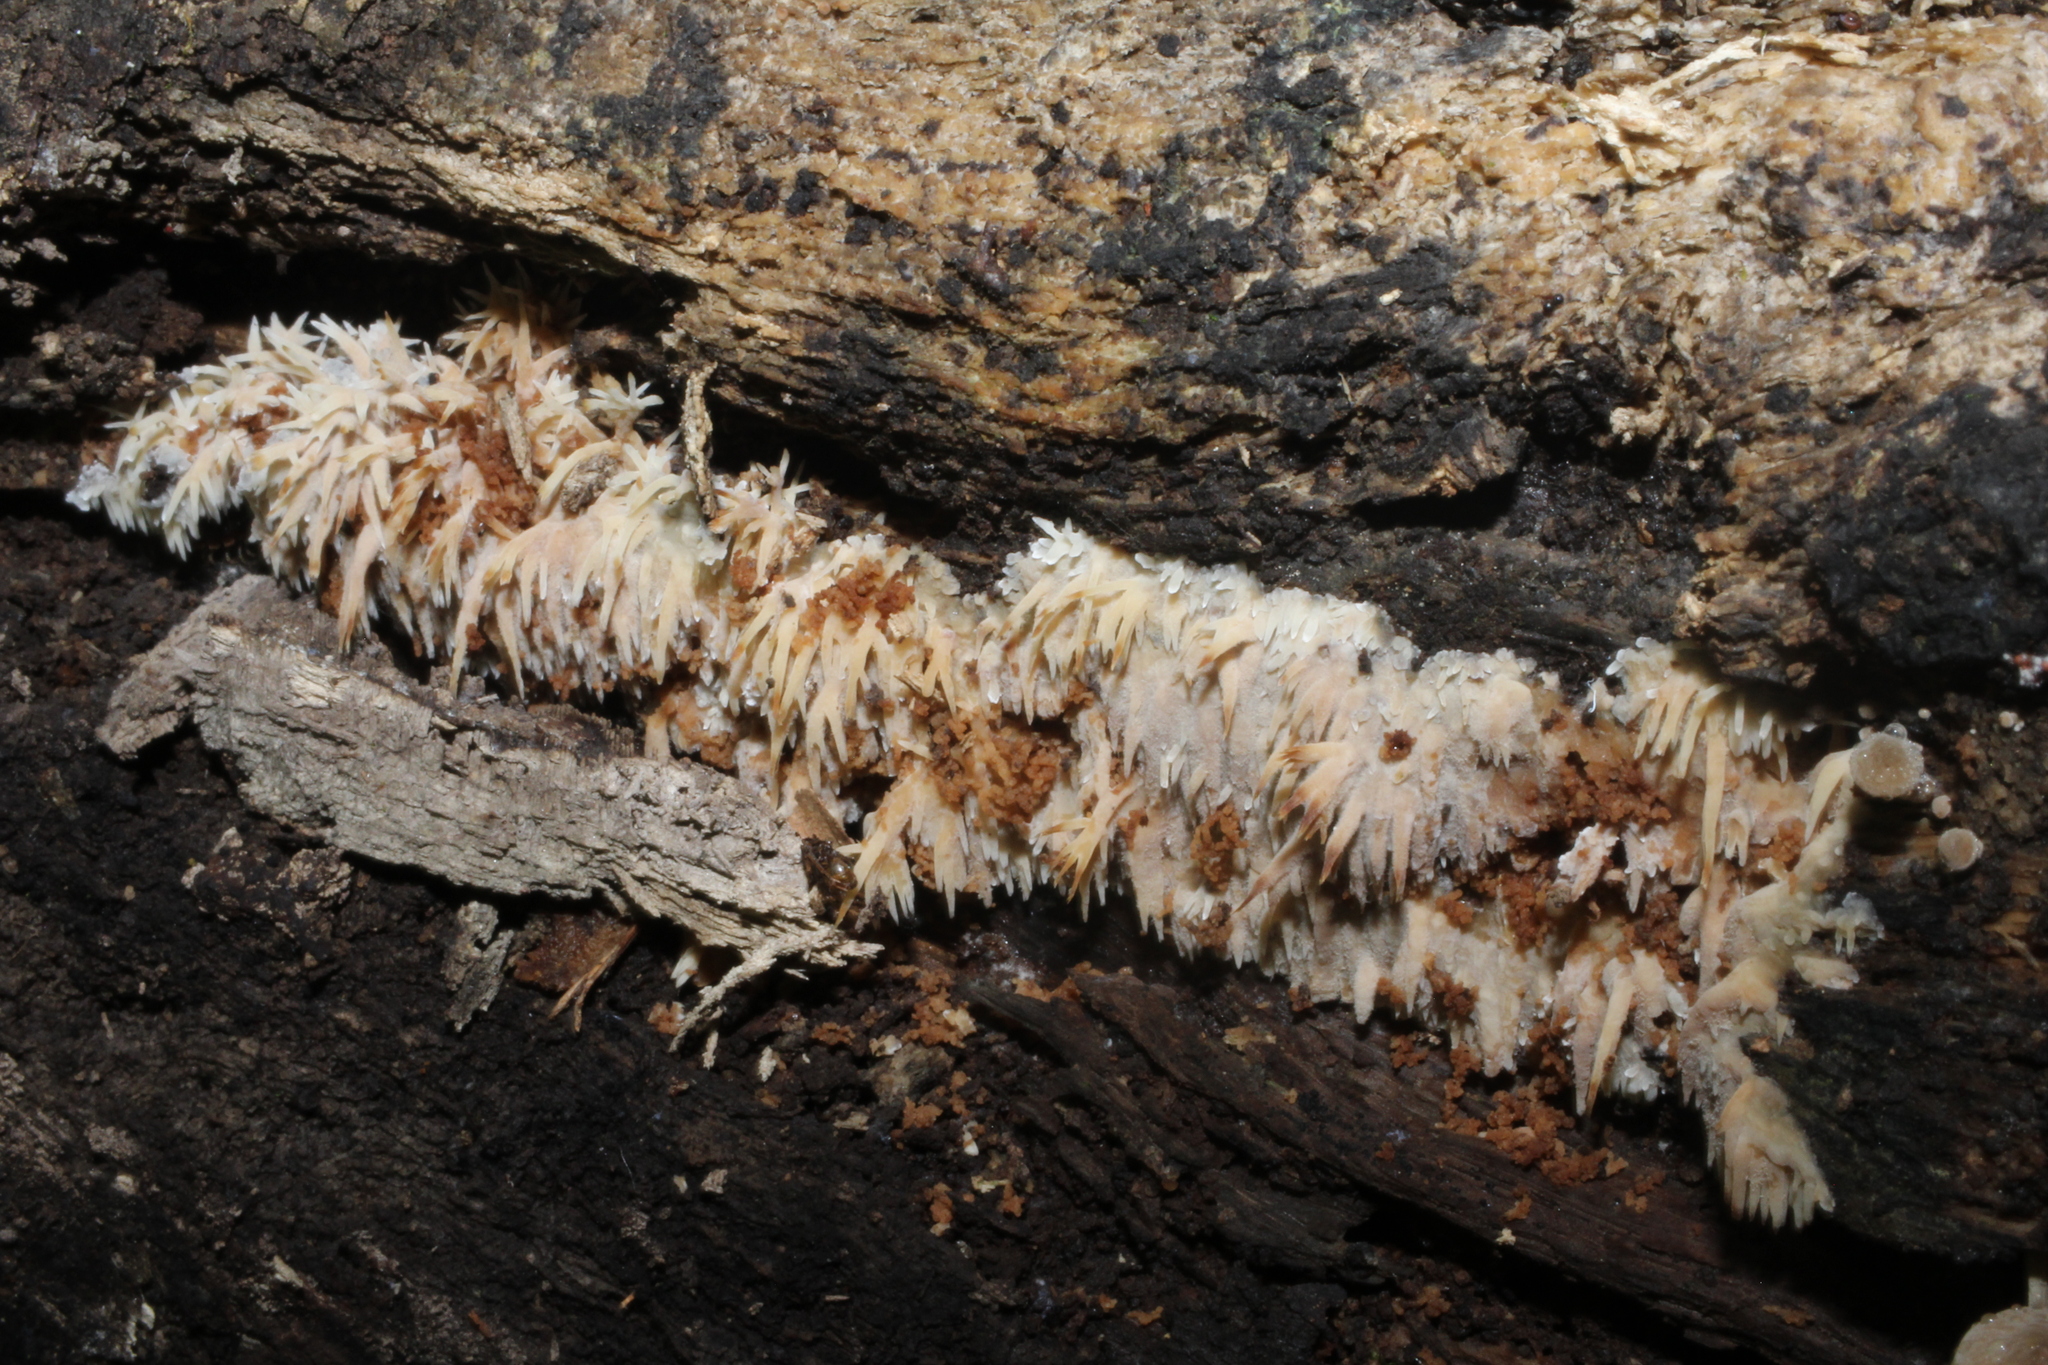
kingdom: Fungi
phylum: Basidiomycota
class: Agaricomycetes
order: Agaricales
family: Radulomycetaceae
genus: Radulomyces
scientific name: Radulomyces copelandii
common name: Asian beauty
